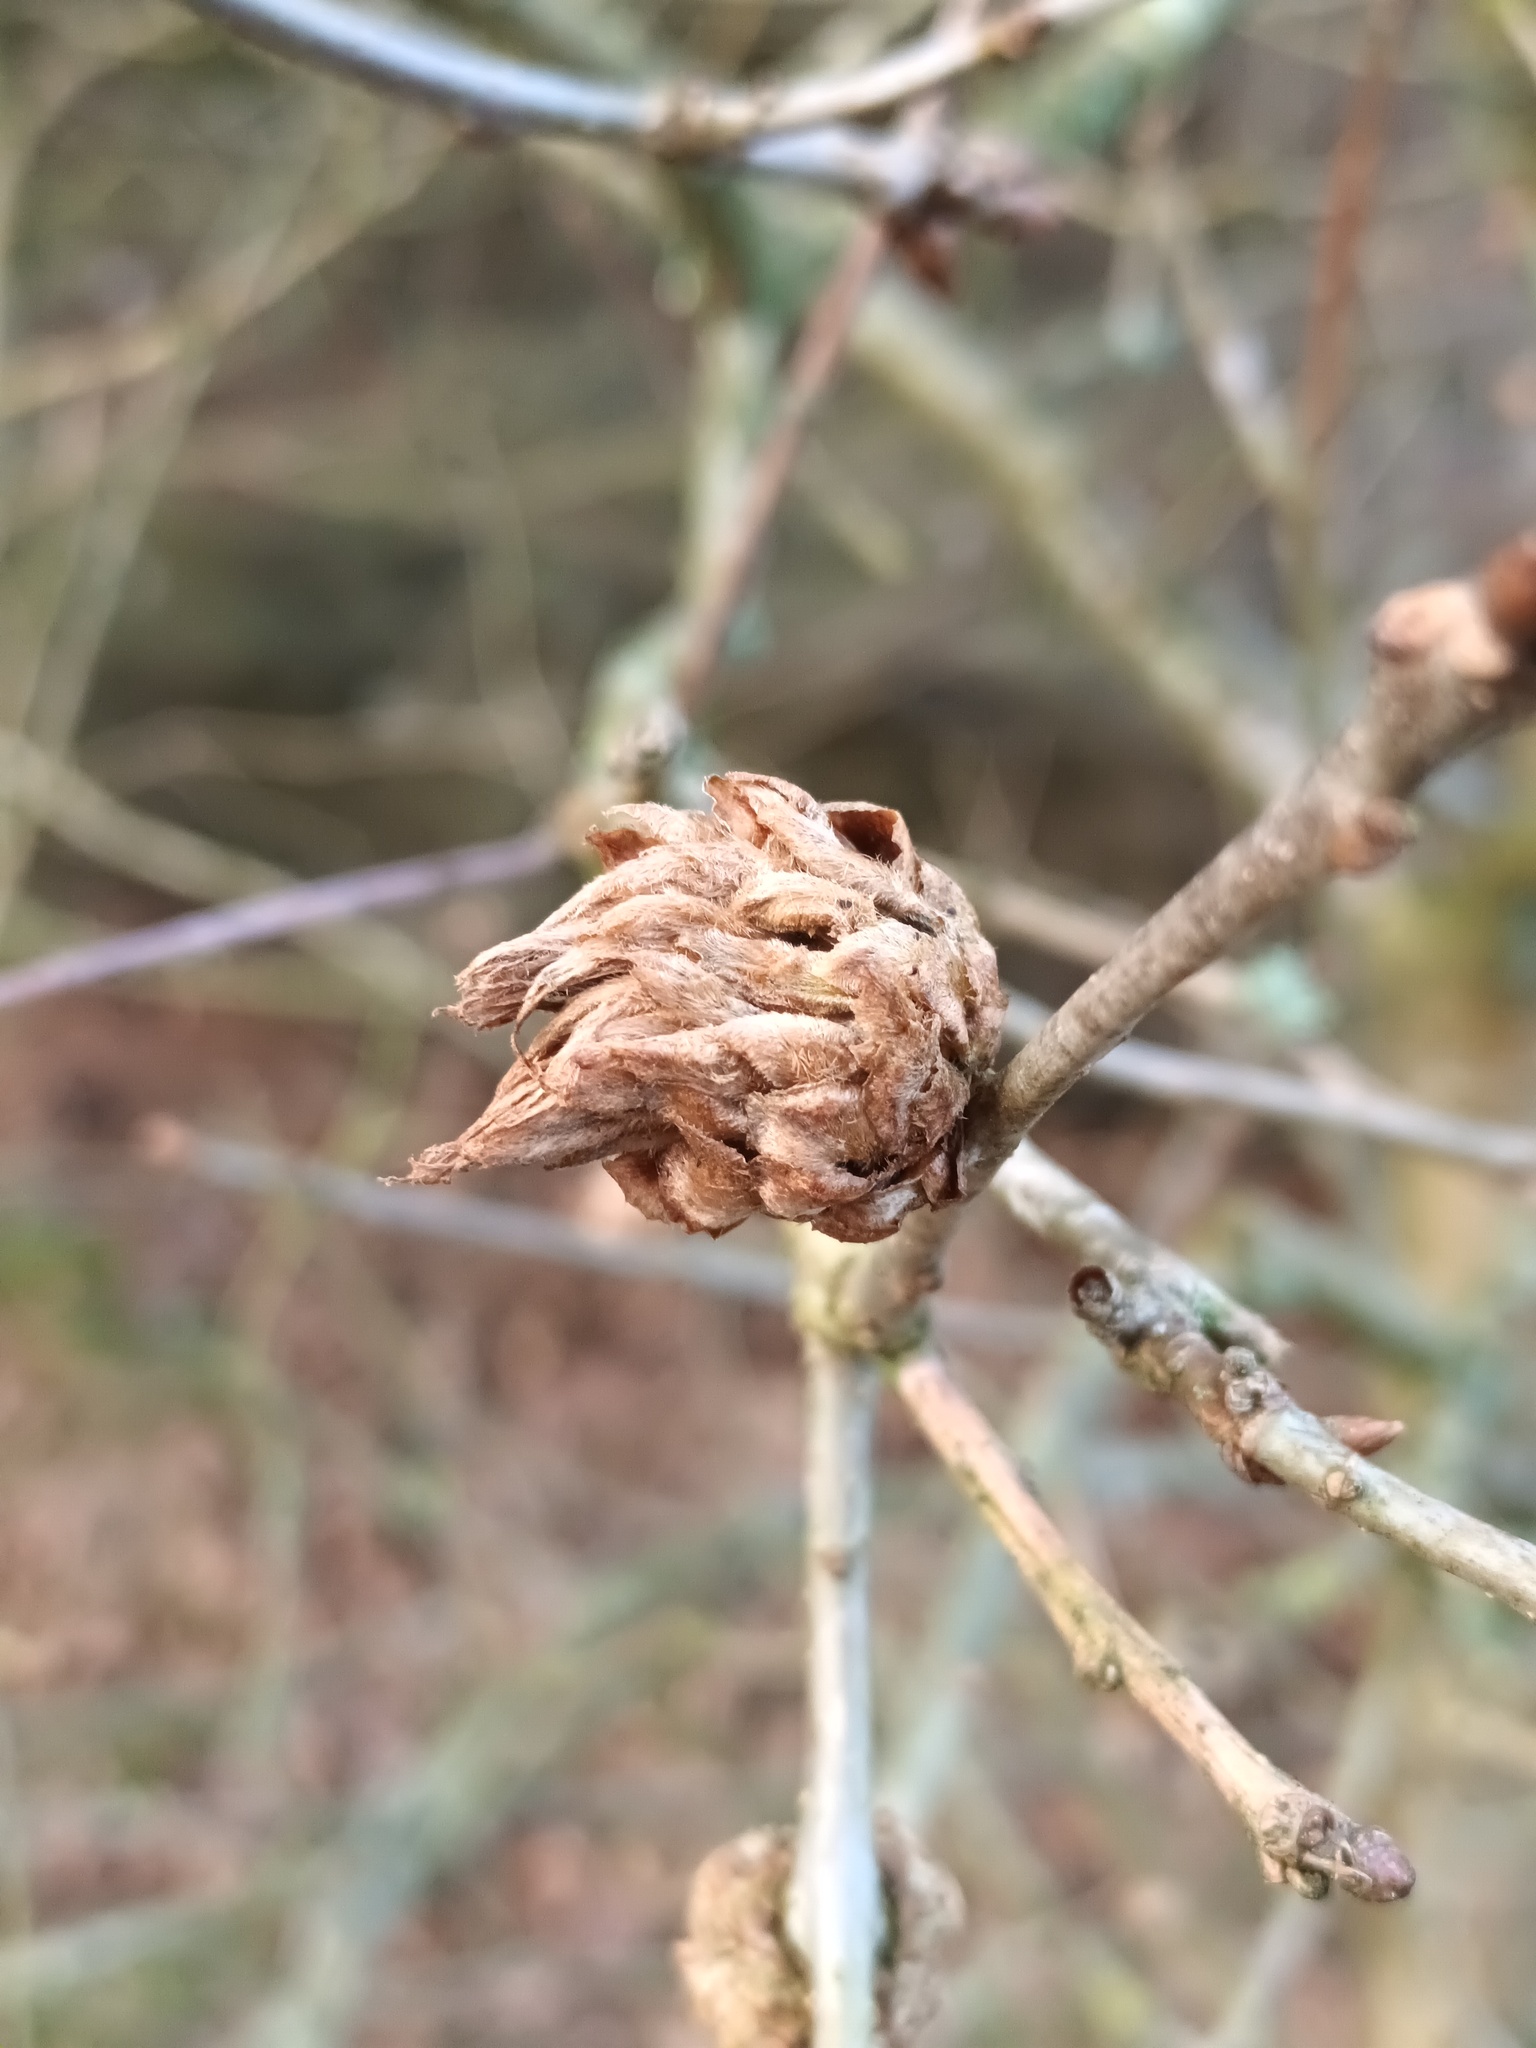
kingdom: Animalia
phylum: Arthropoda
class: Insecta
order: Hymenoptera
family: Cynipidae
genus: Andricus
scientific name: Andricus foecundatrix
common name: Artichoke gall
